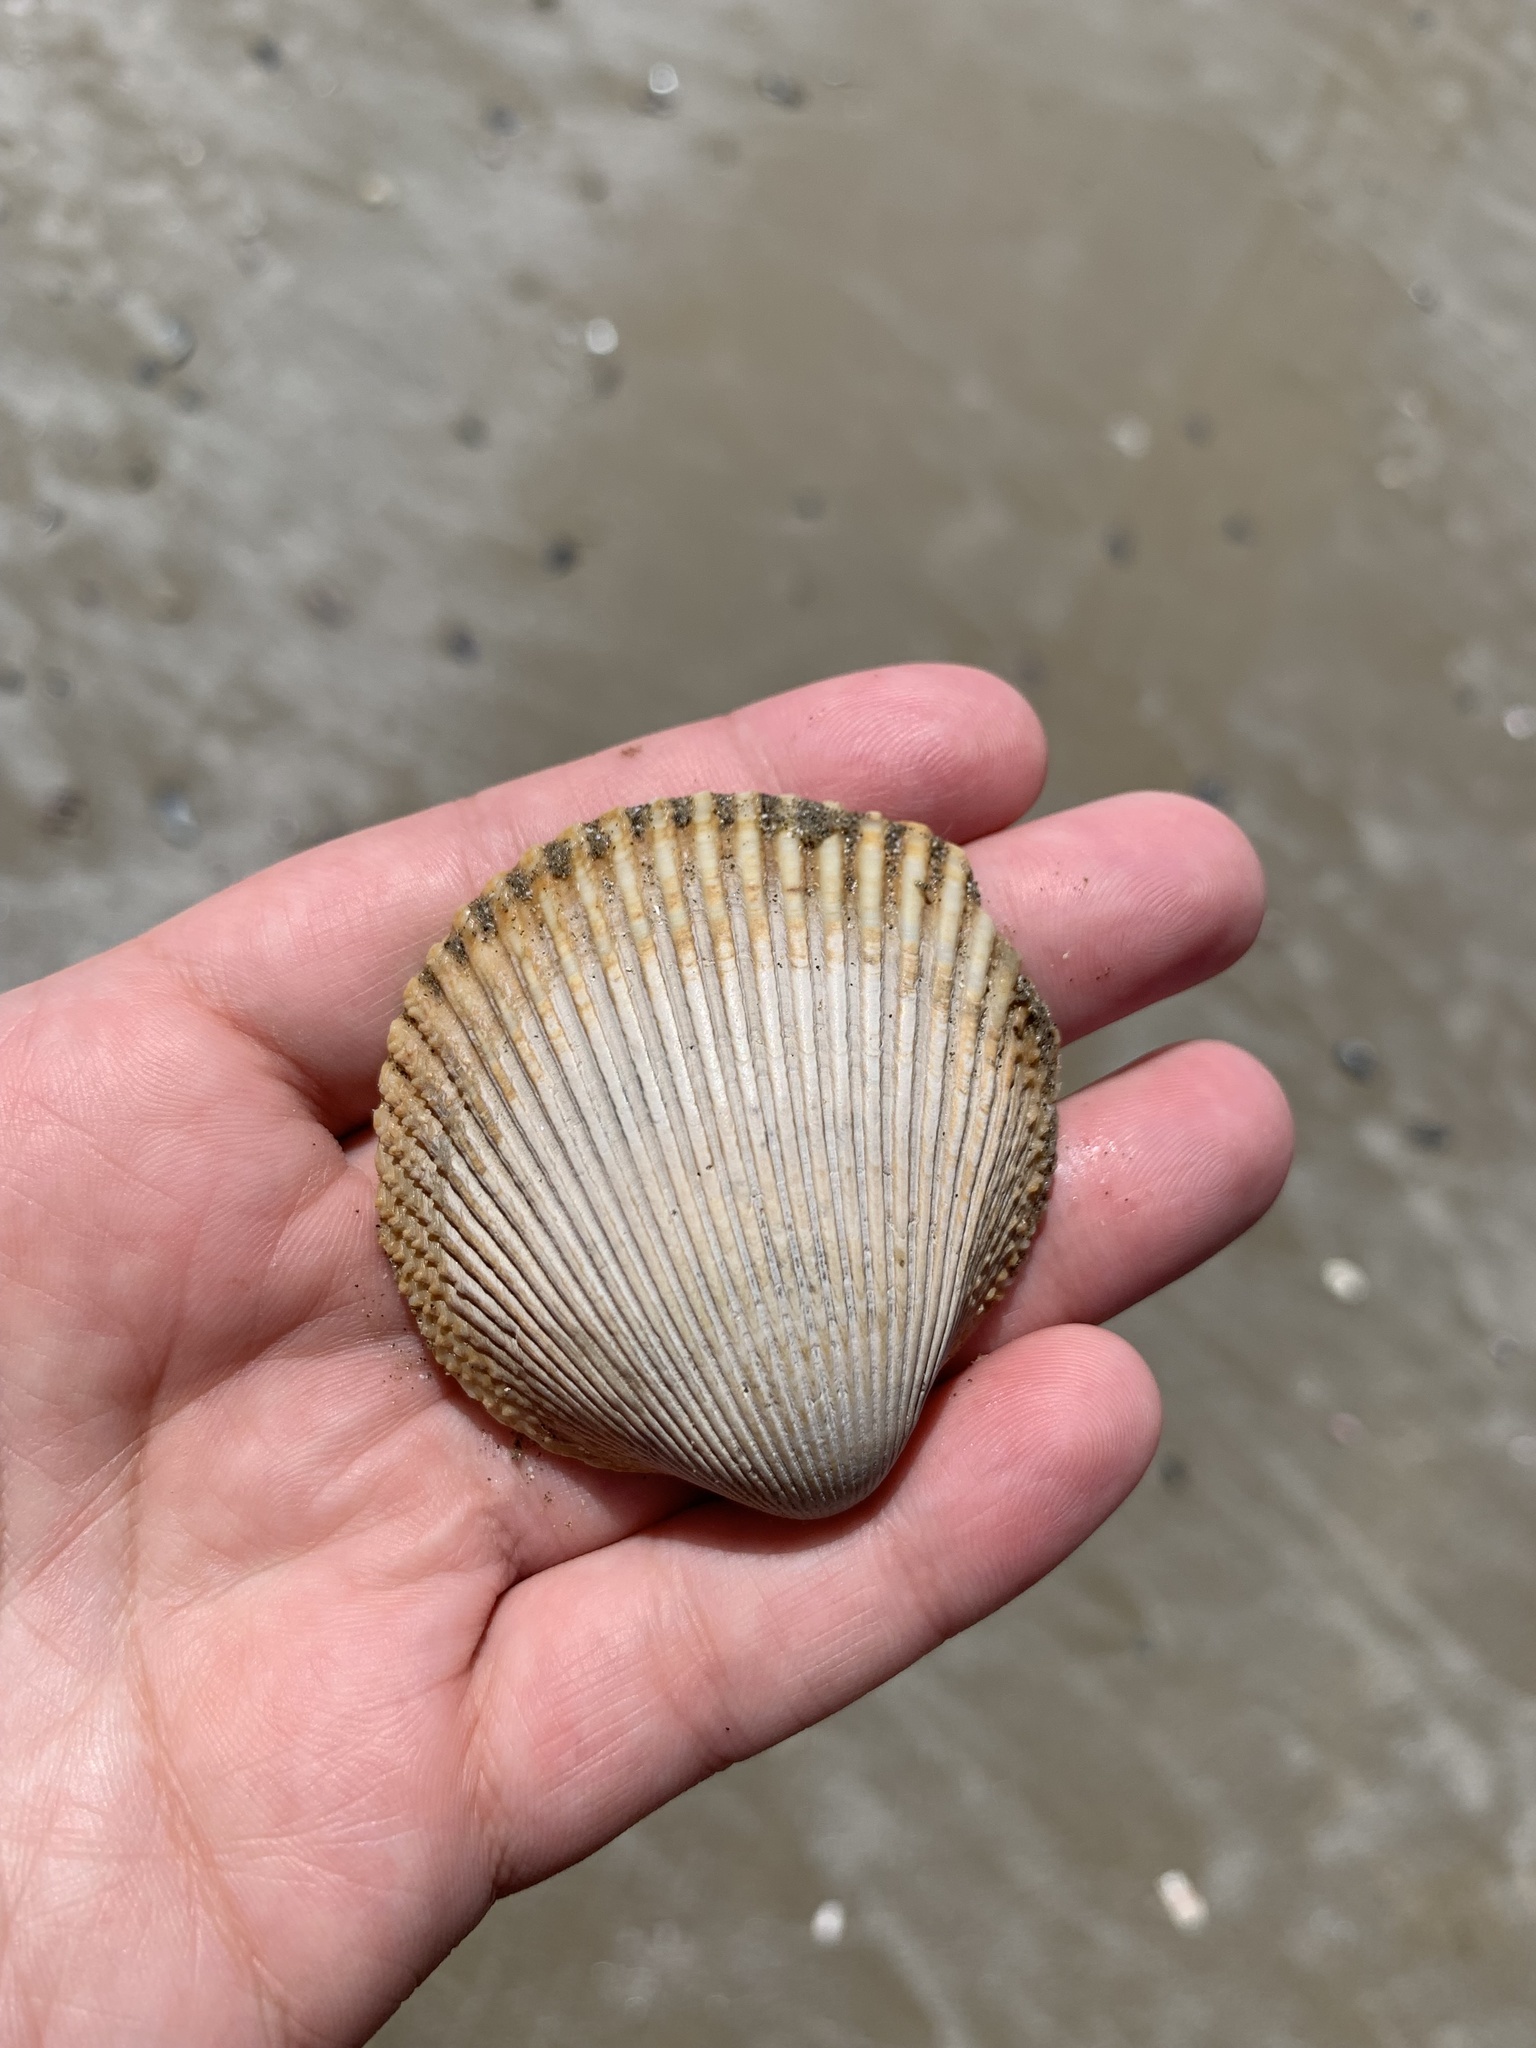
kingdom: Animalia
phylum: Mollusca
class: Bivalvia
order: Cardiida
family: Cardiidae
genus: Dallocardia
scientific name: Dallocardia delicatula
